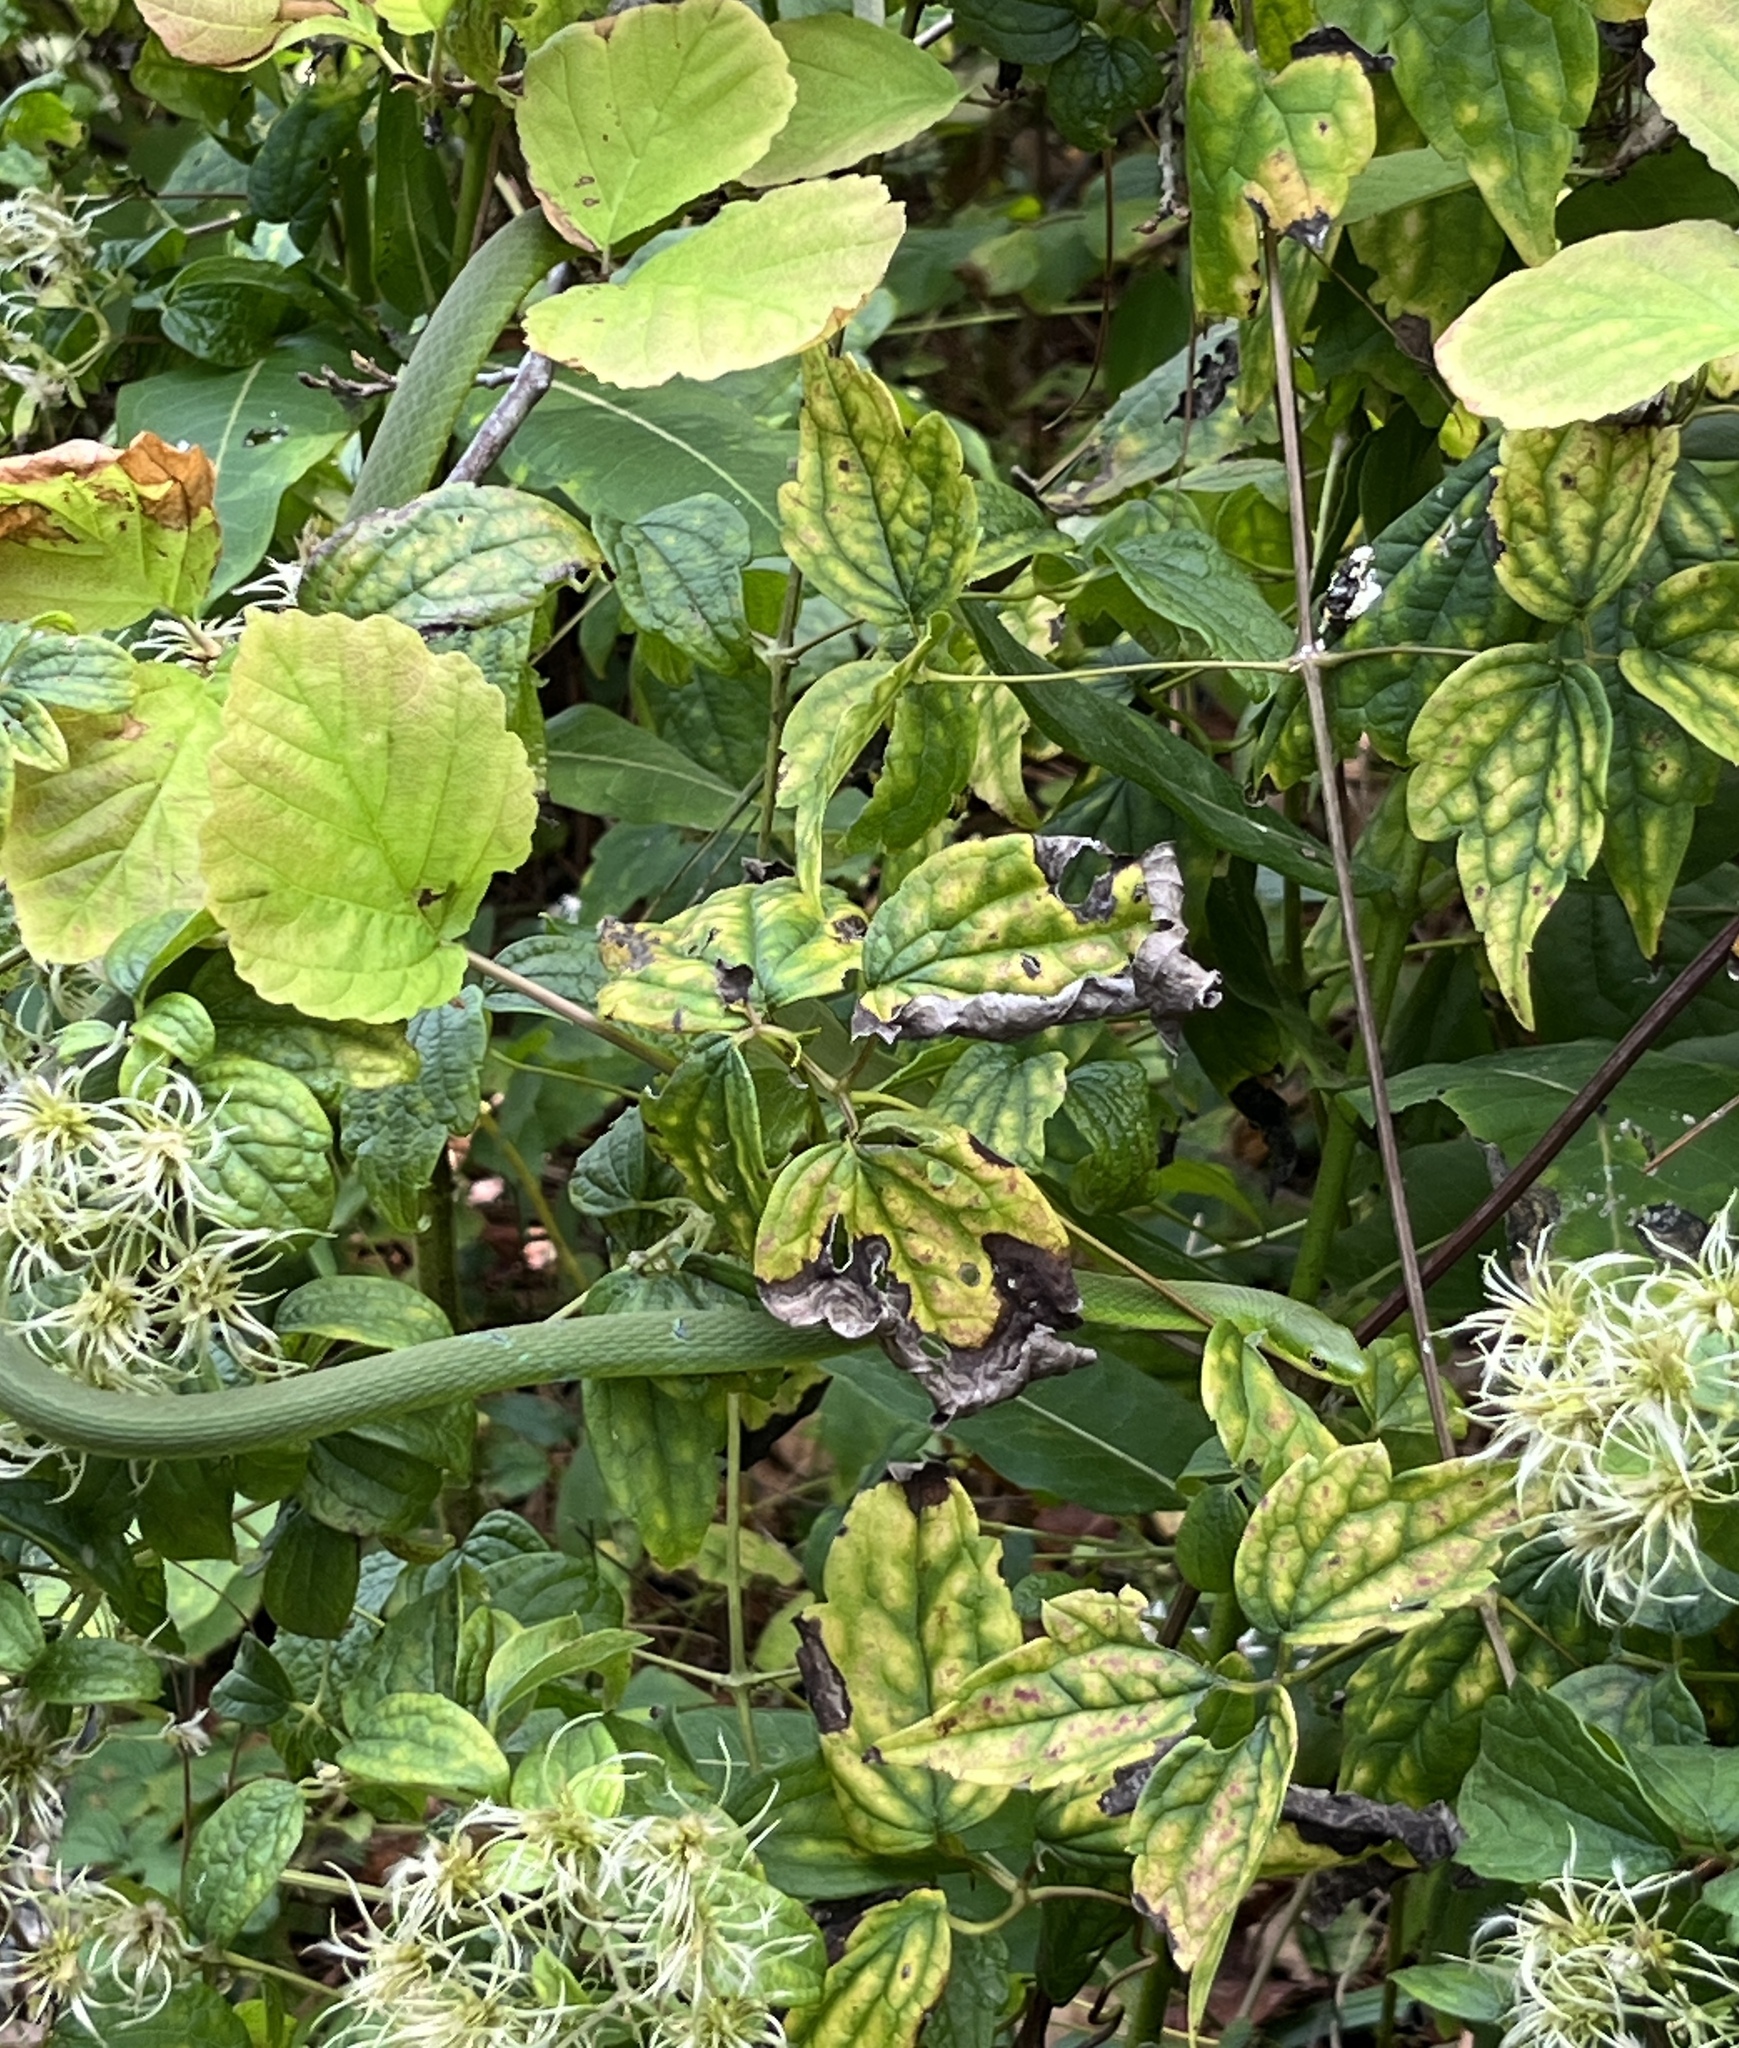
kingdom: Animalia
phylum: Chordata
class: Squamata
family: Colubridae
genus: Opheodrys
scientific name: Opheodrys aestivus
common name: Rough greensnake
